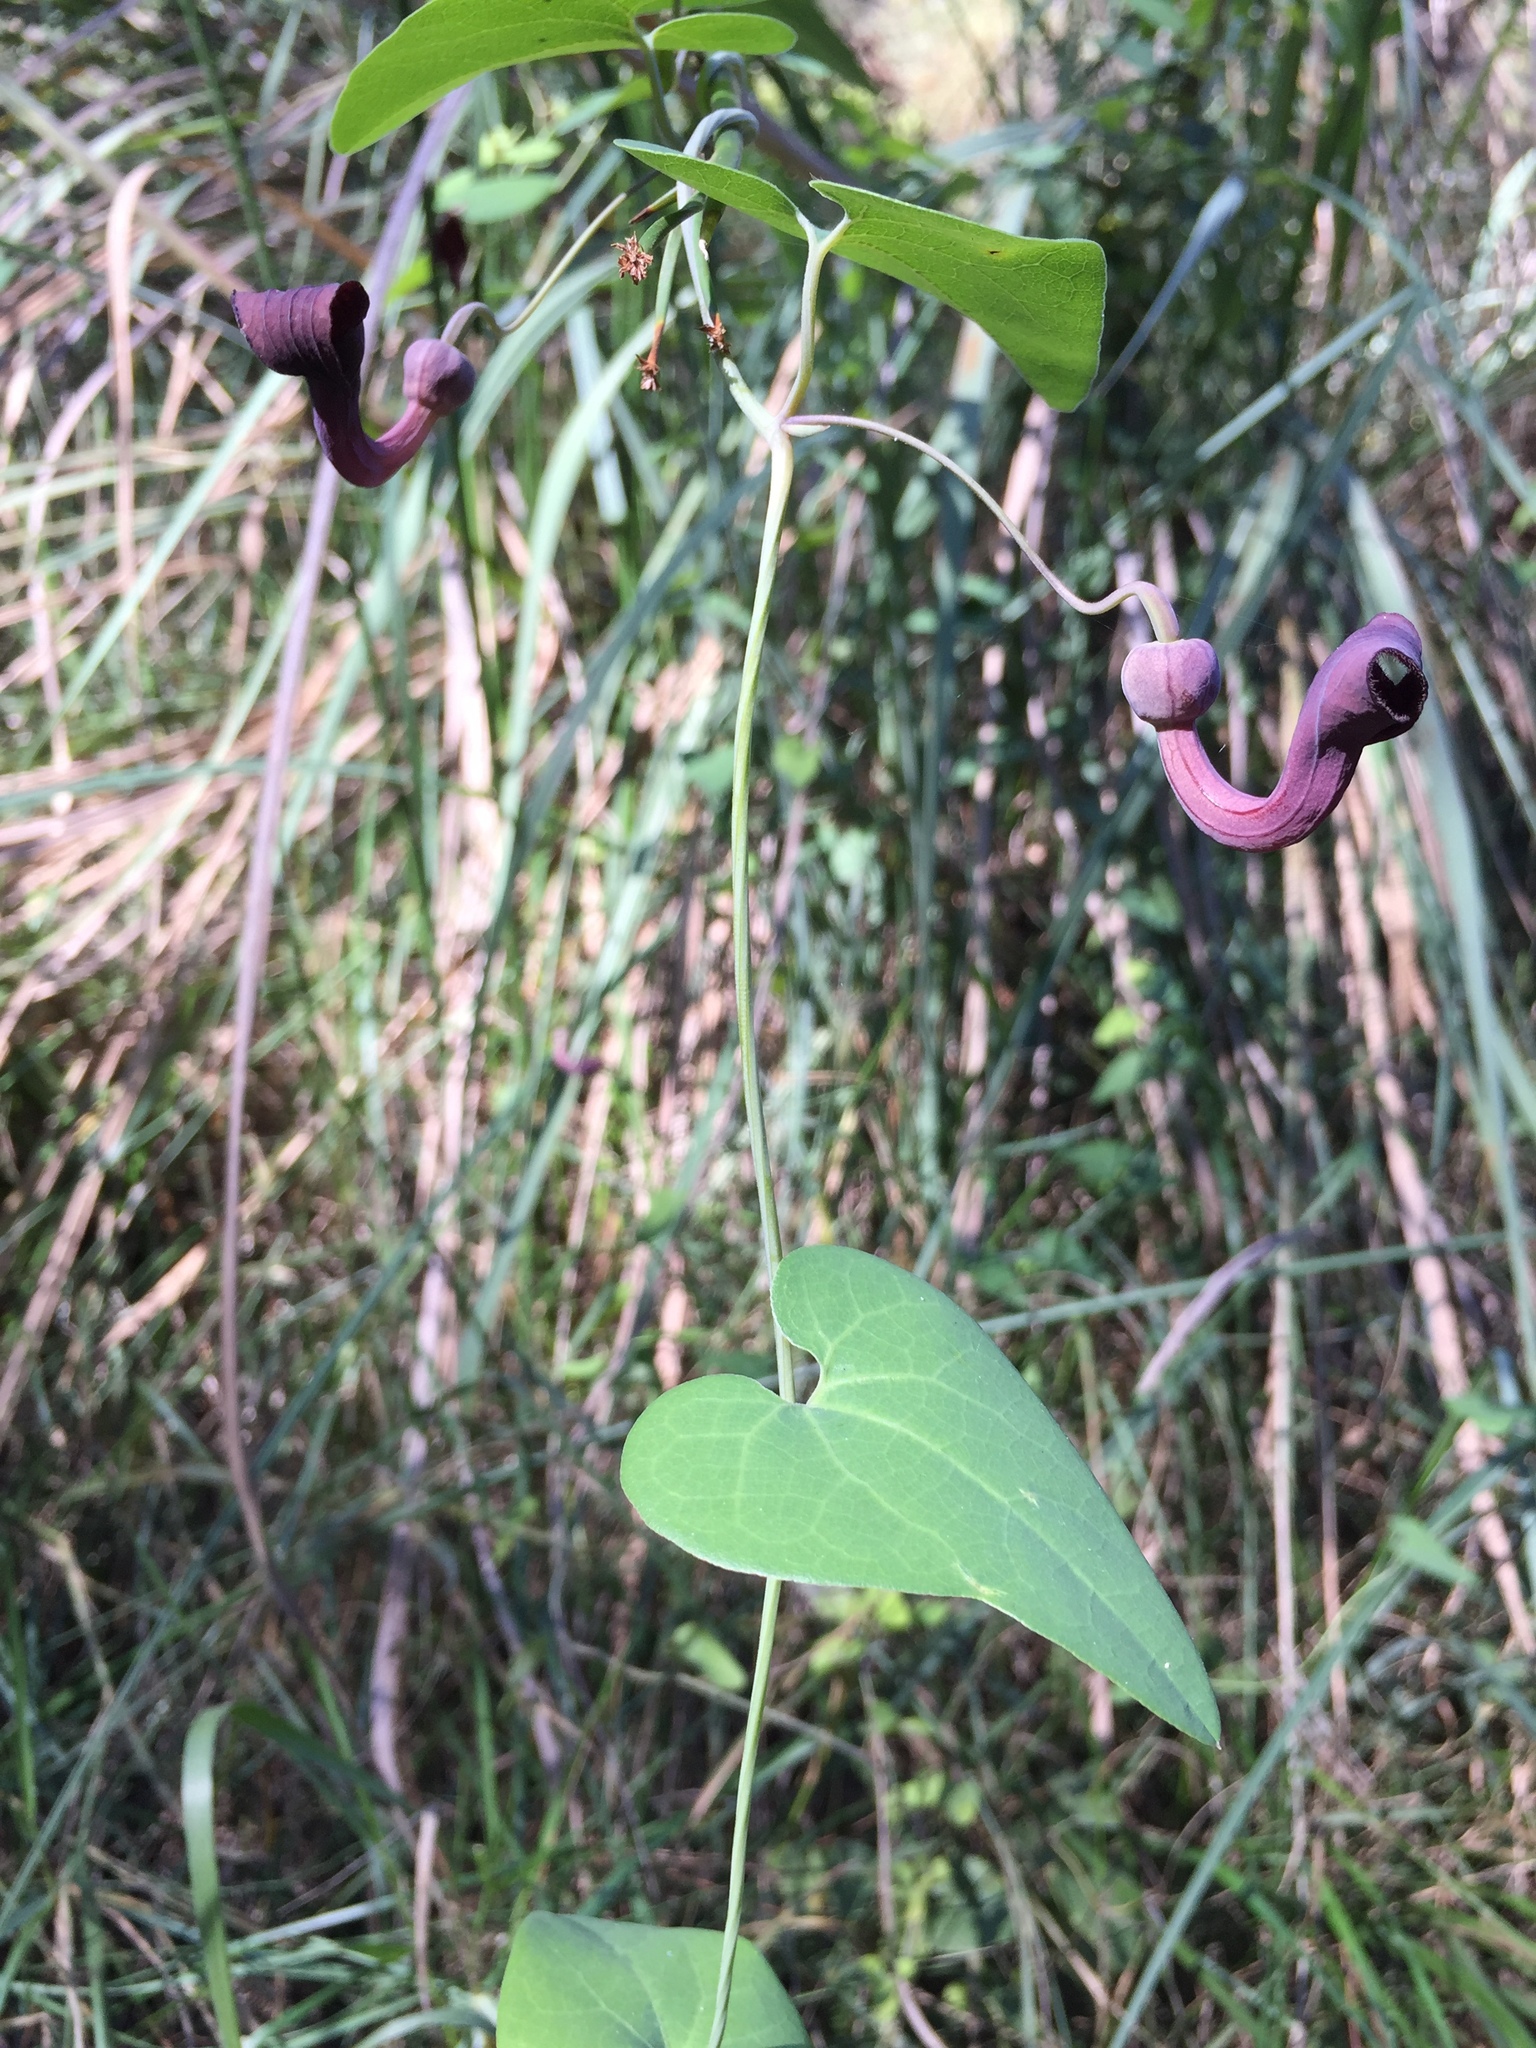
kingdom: Plantae
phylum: Tracheophyta
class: Magnoliopsida
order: Piperales
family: Aristolochiaceae
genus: Aristolochia
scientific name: Aristolochia baetica
